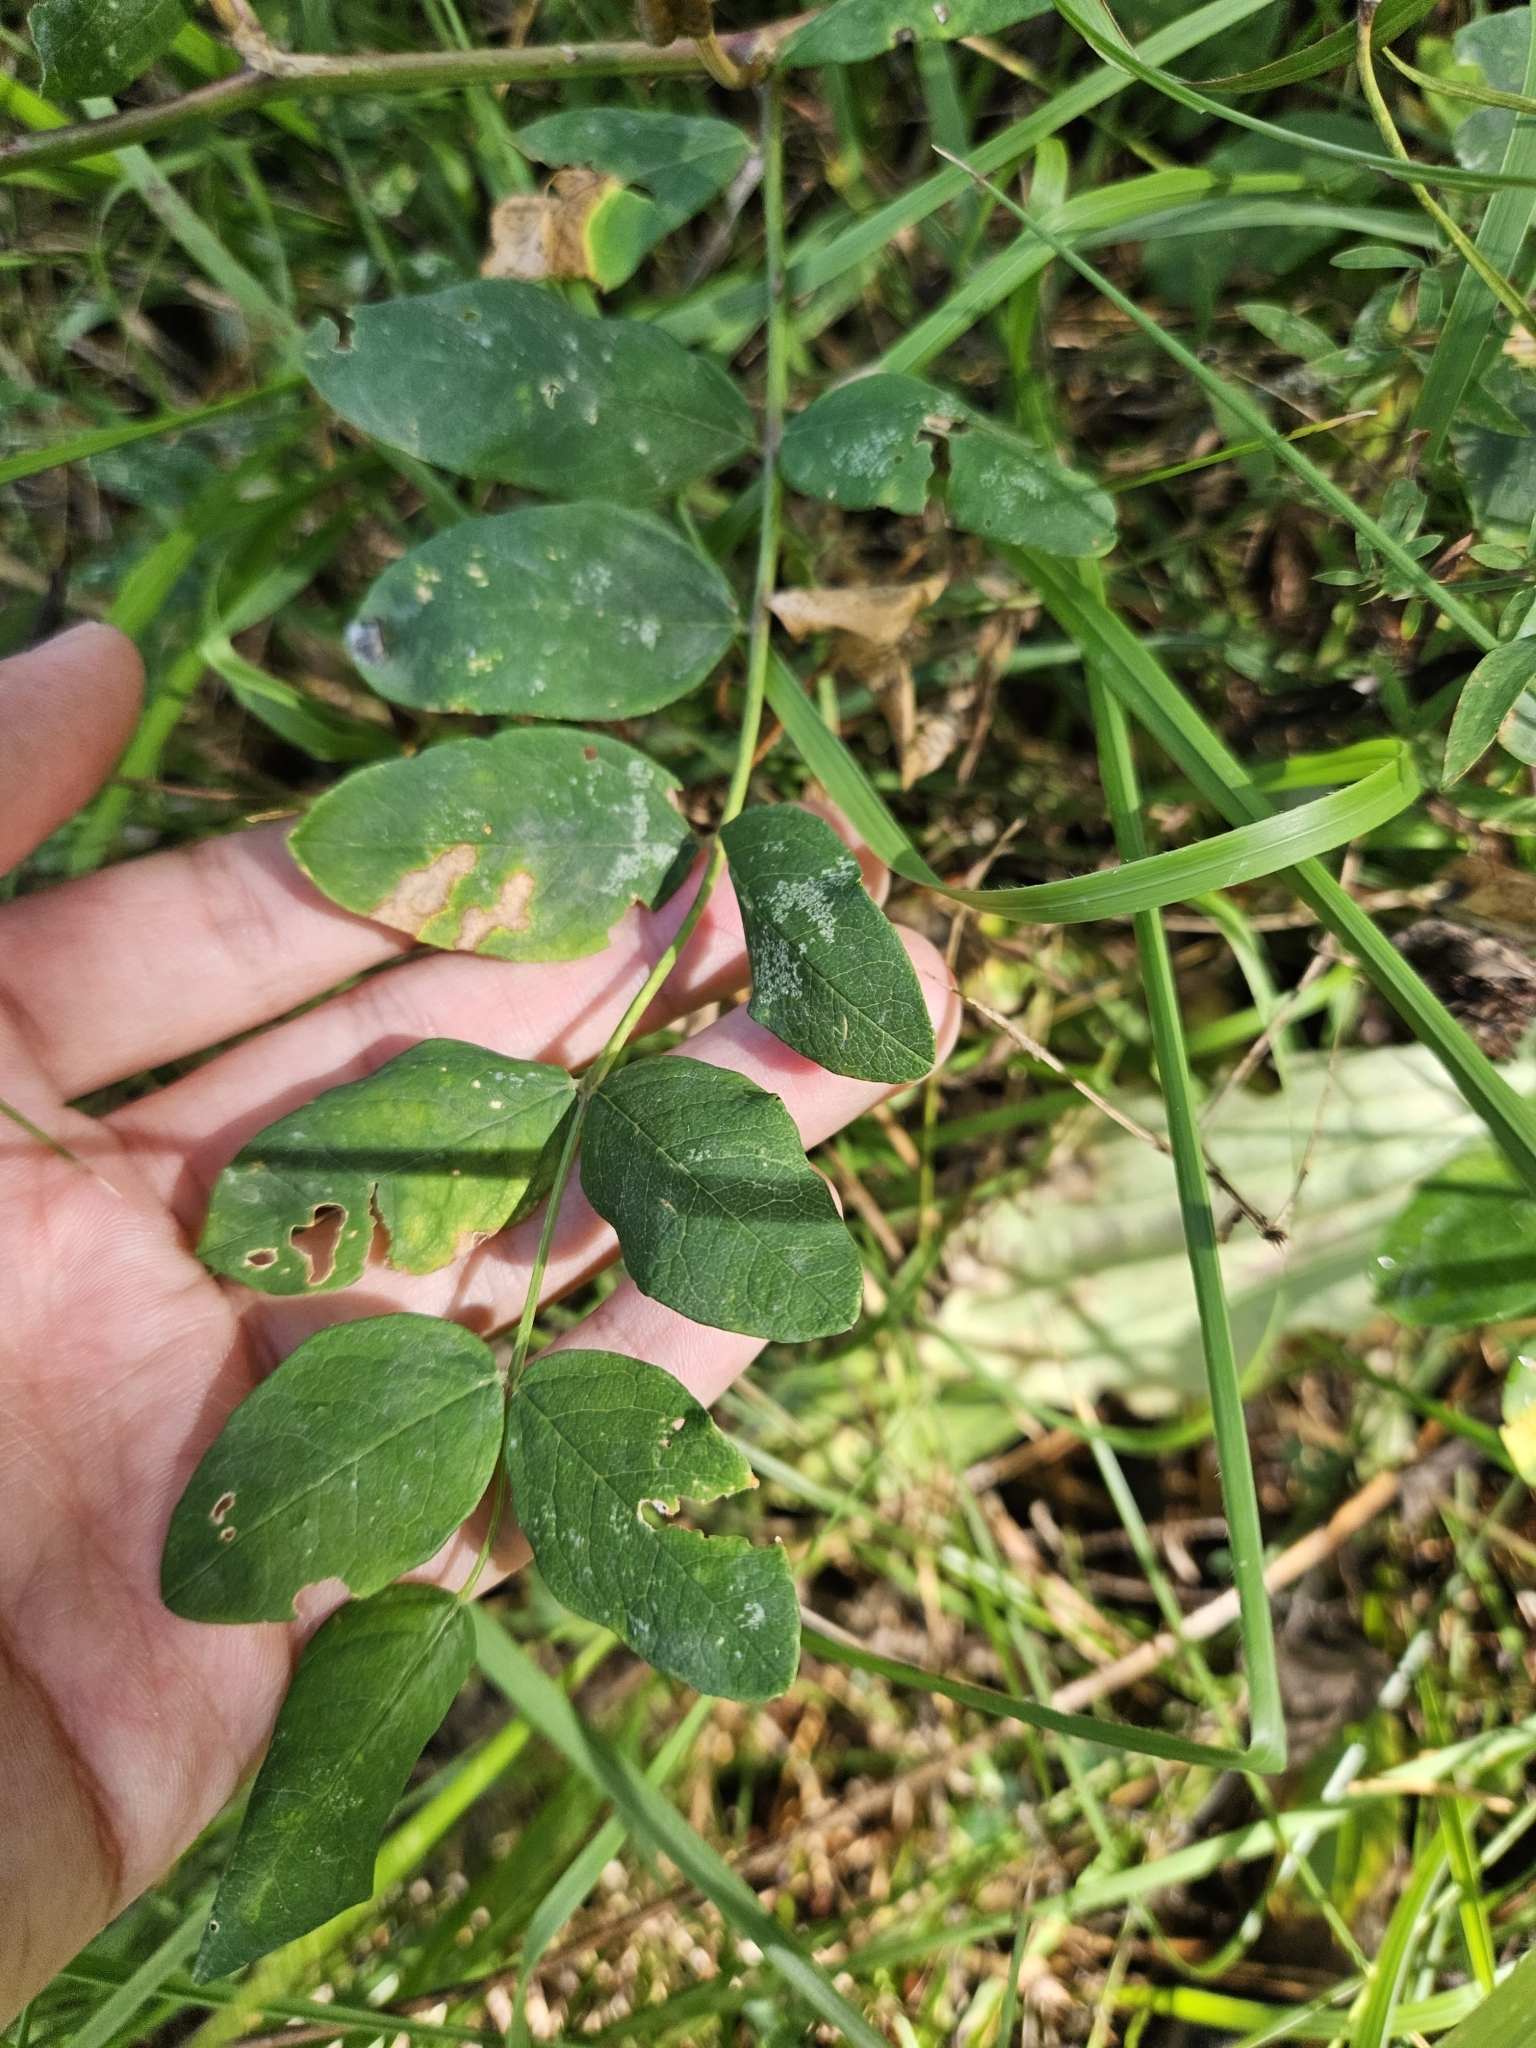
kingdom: Plantae
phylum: Tracheophyta
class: Magnoliopsida
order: Fabales
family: Fabaceae
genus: Astragalus
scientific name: Astragalus glycyphyllos
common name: Wild liquorice
